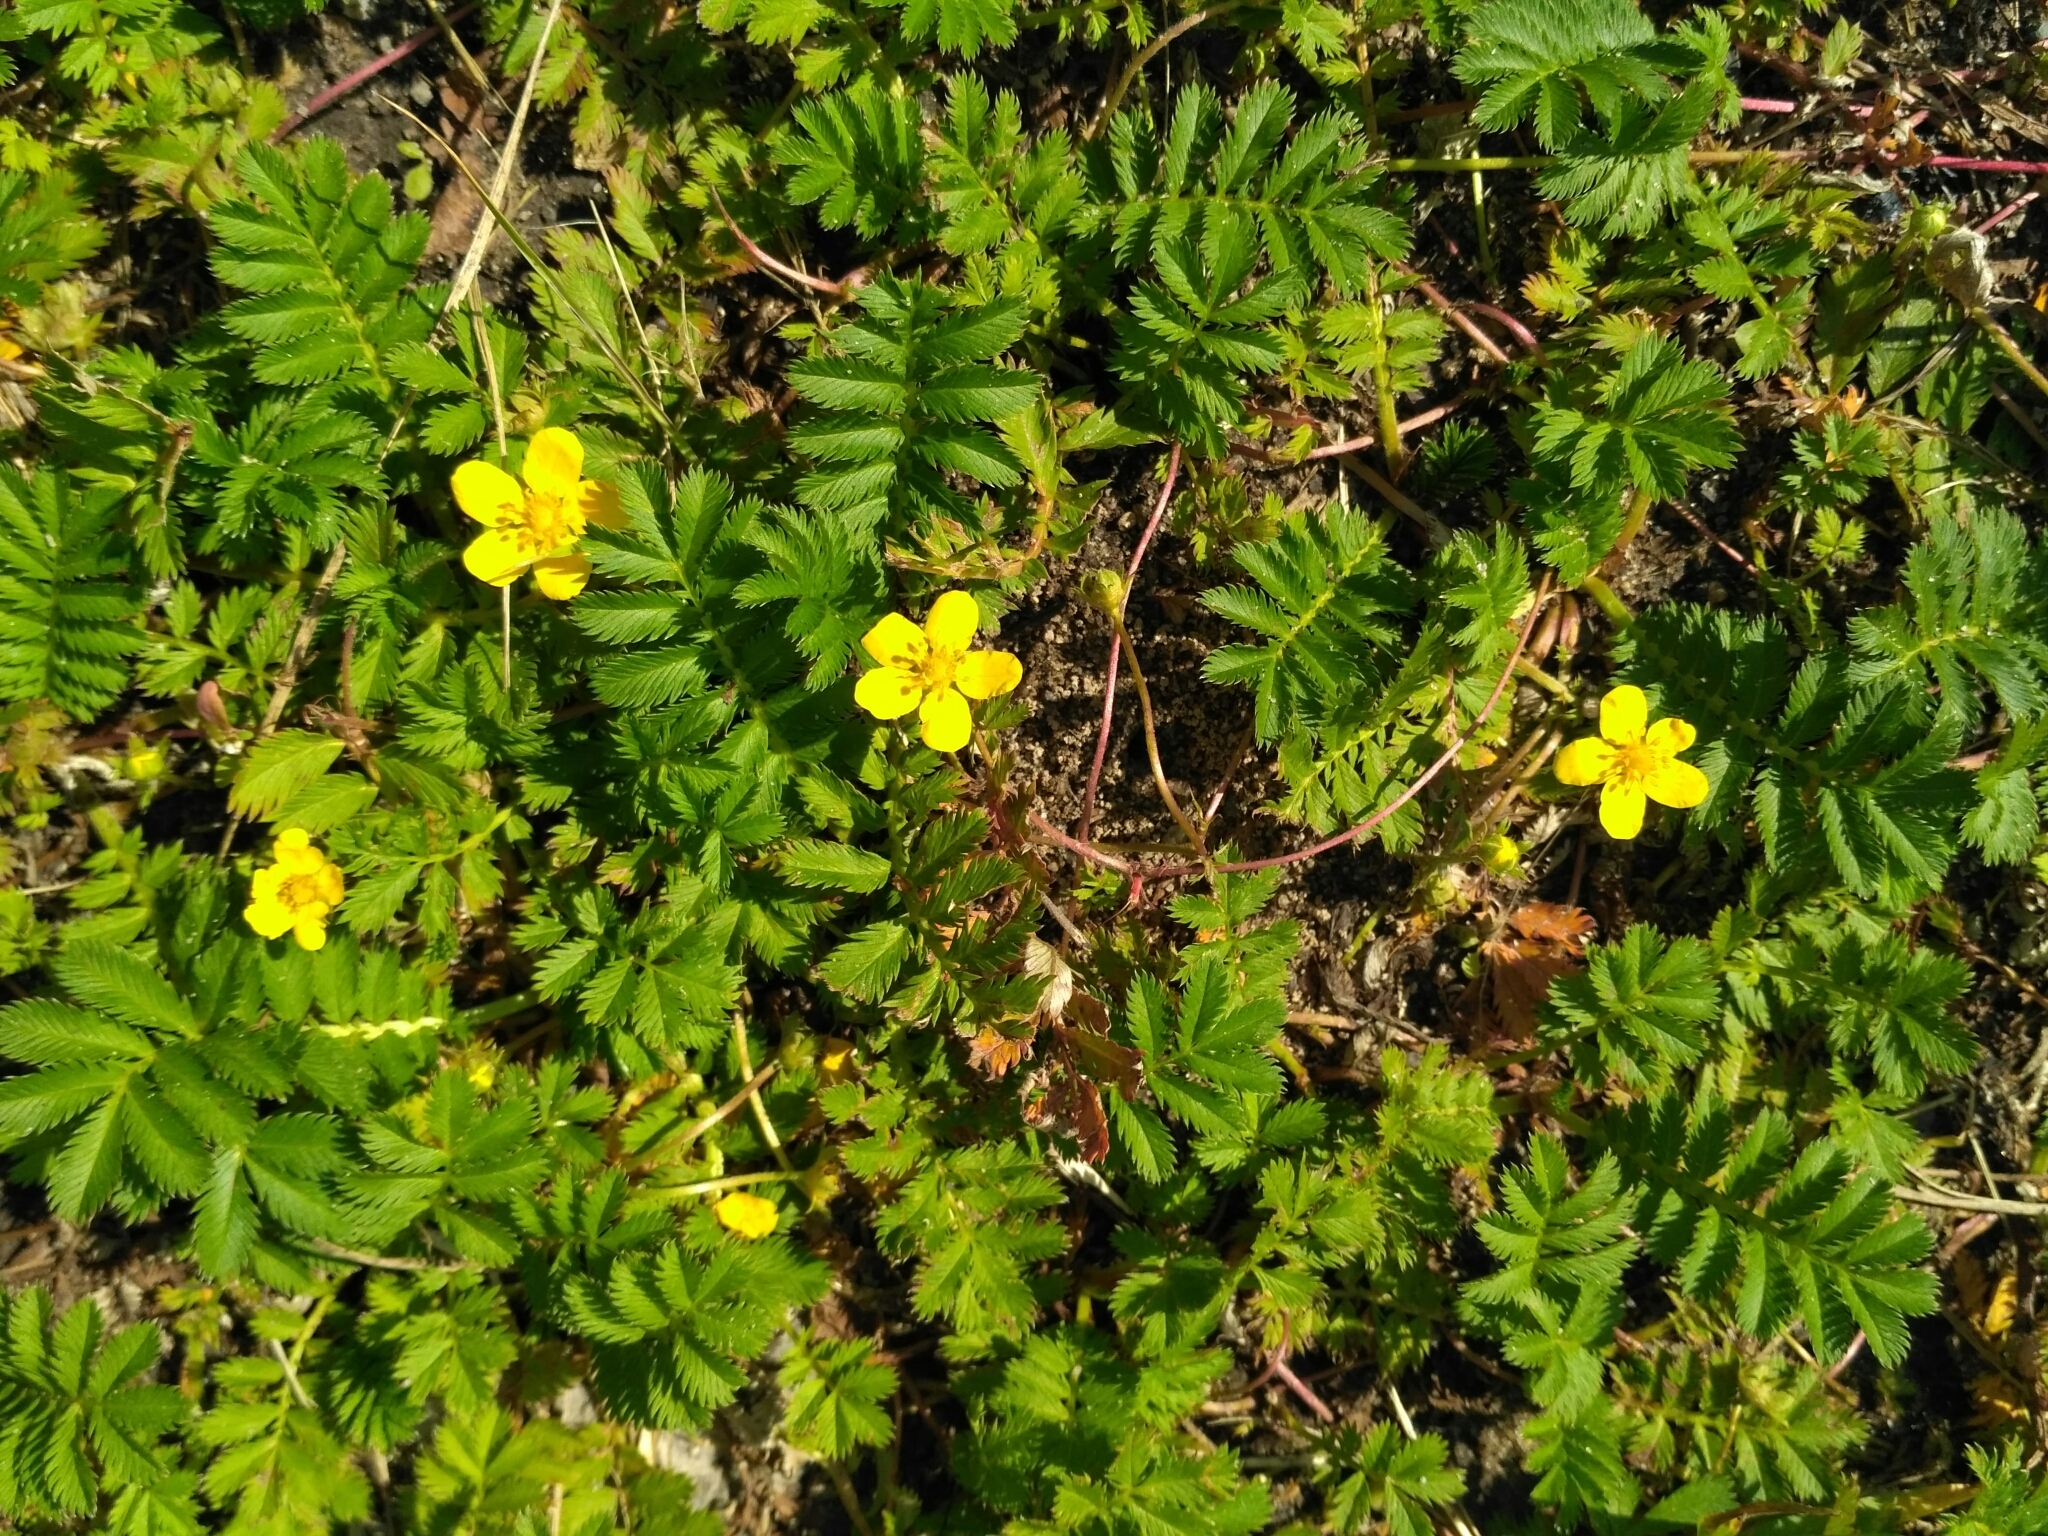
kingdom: Plantae
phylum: Tracheophyta
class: Magnoliopsida
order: Rosales
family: Rosaceae
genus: Argentina
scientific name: Argentina anserina
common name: Common silverweed
